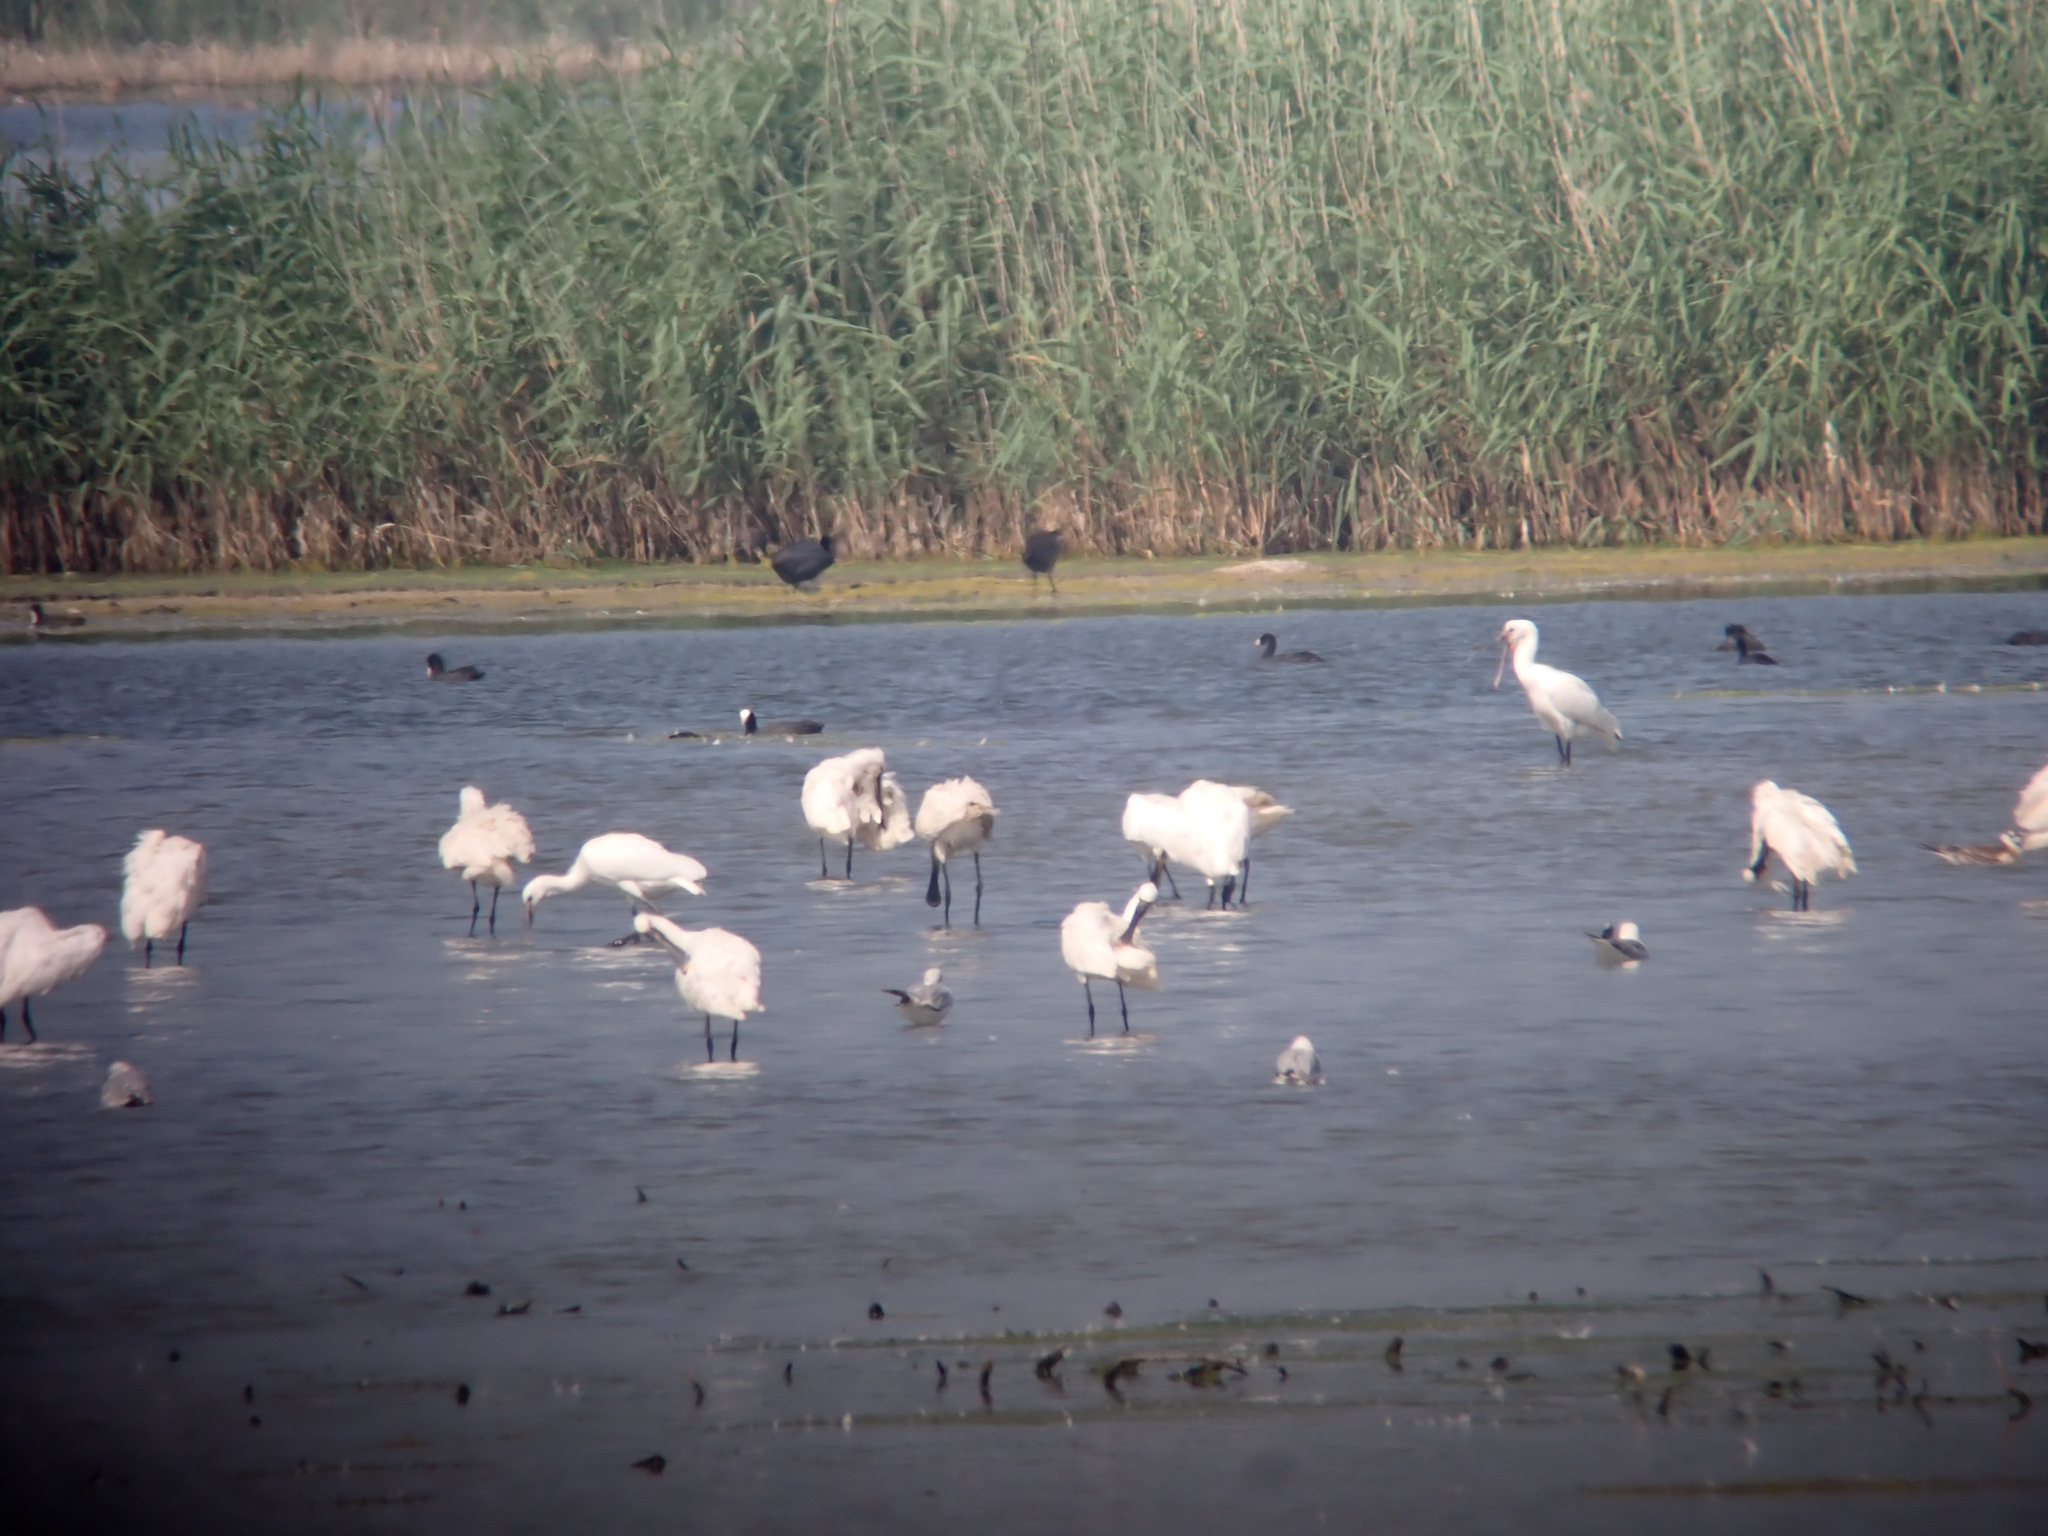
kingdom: Animalia
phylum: Chordata
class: Aves
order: Pelecaniformes
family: Threskiornithidae
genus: Platalea
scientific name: Platalea leucorodia
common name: Eurasian spoonbill
